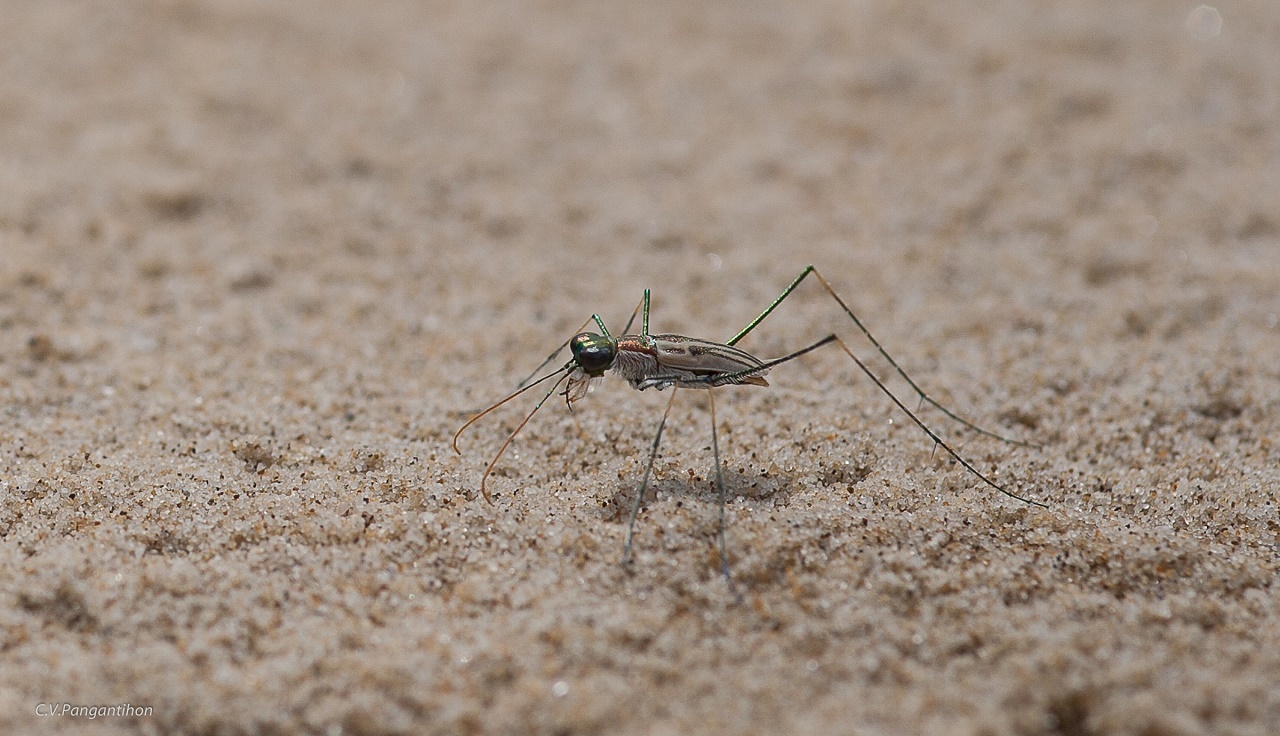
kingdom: Animalia
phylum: Arthropoda
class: Insecta
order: Coleoptera
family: Carabidae
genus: Abroscelis
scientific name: Abroscelis tenuipes
